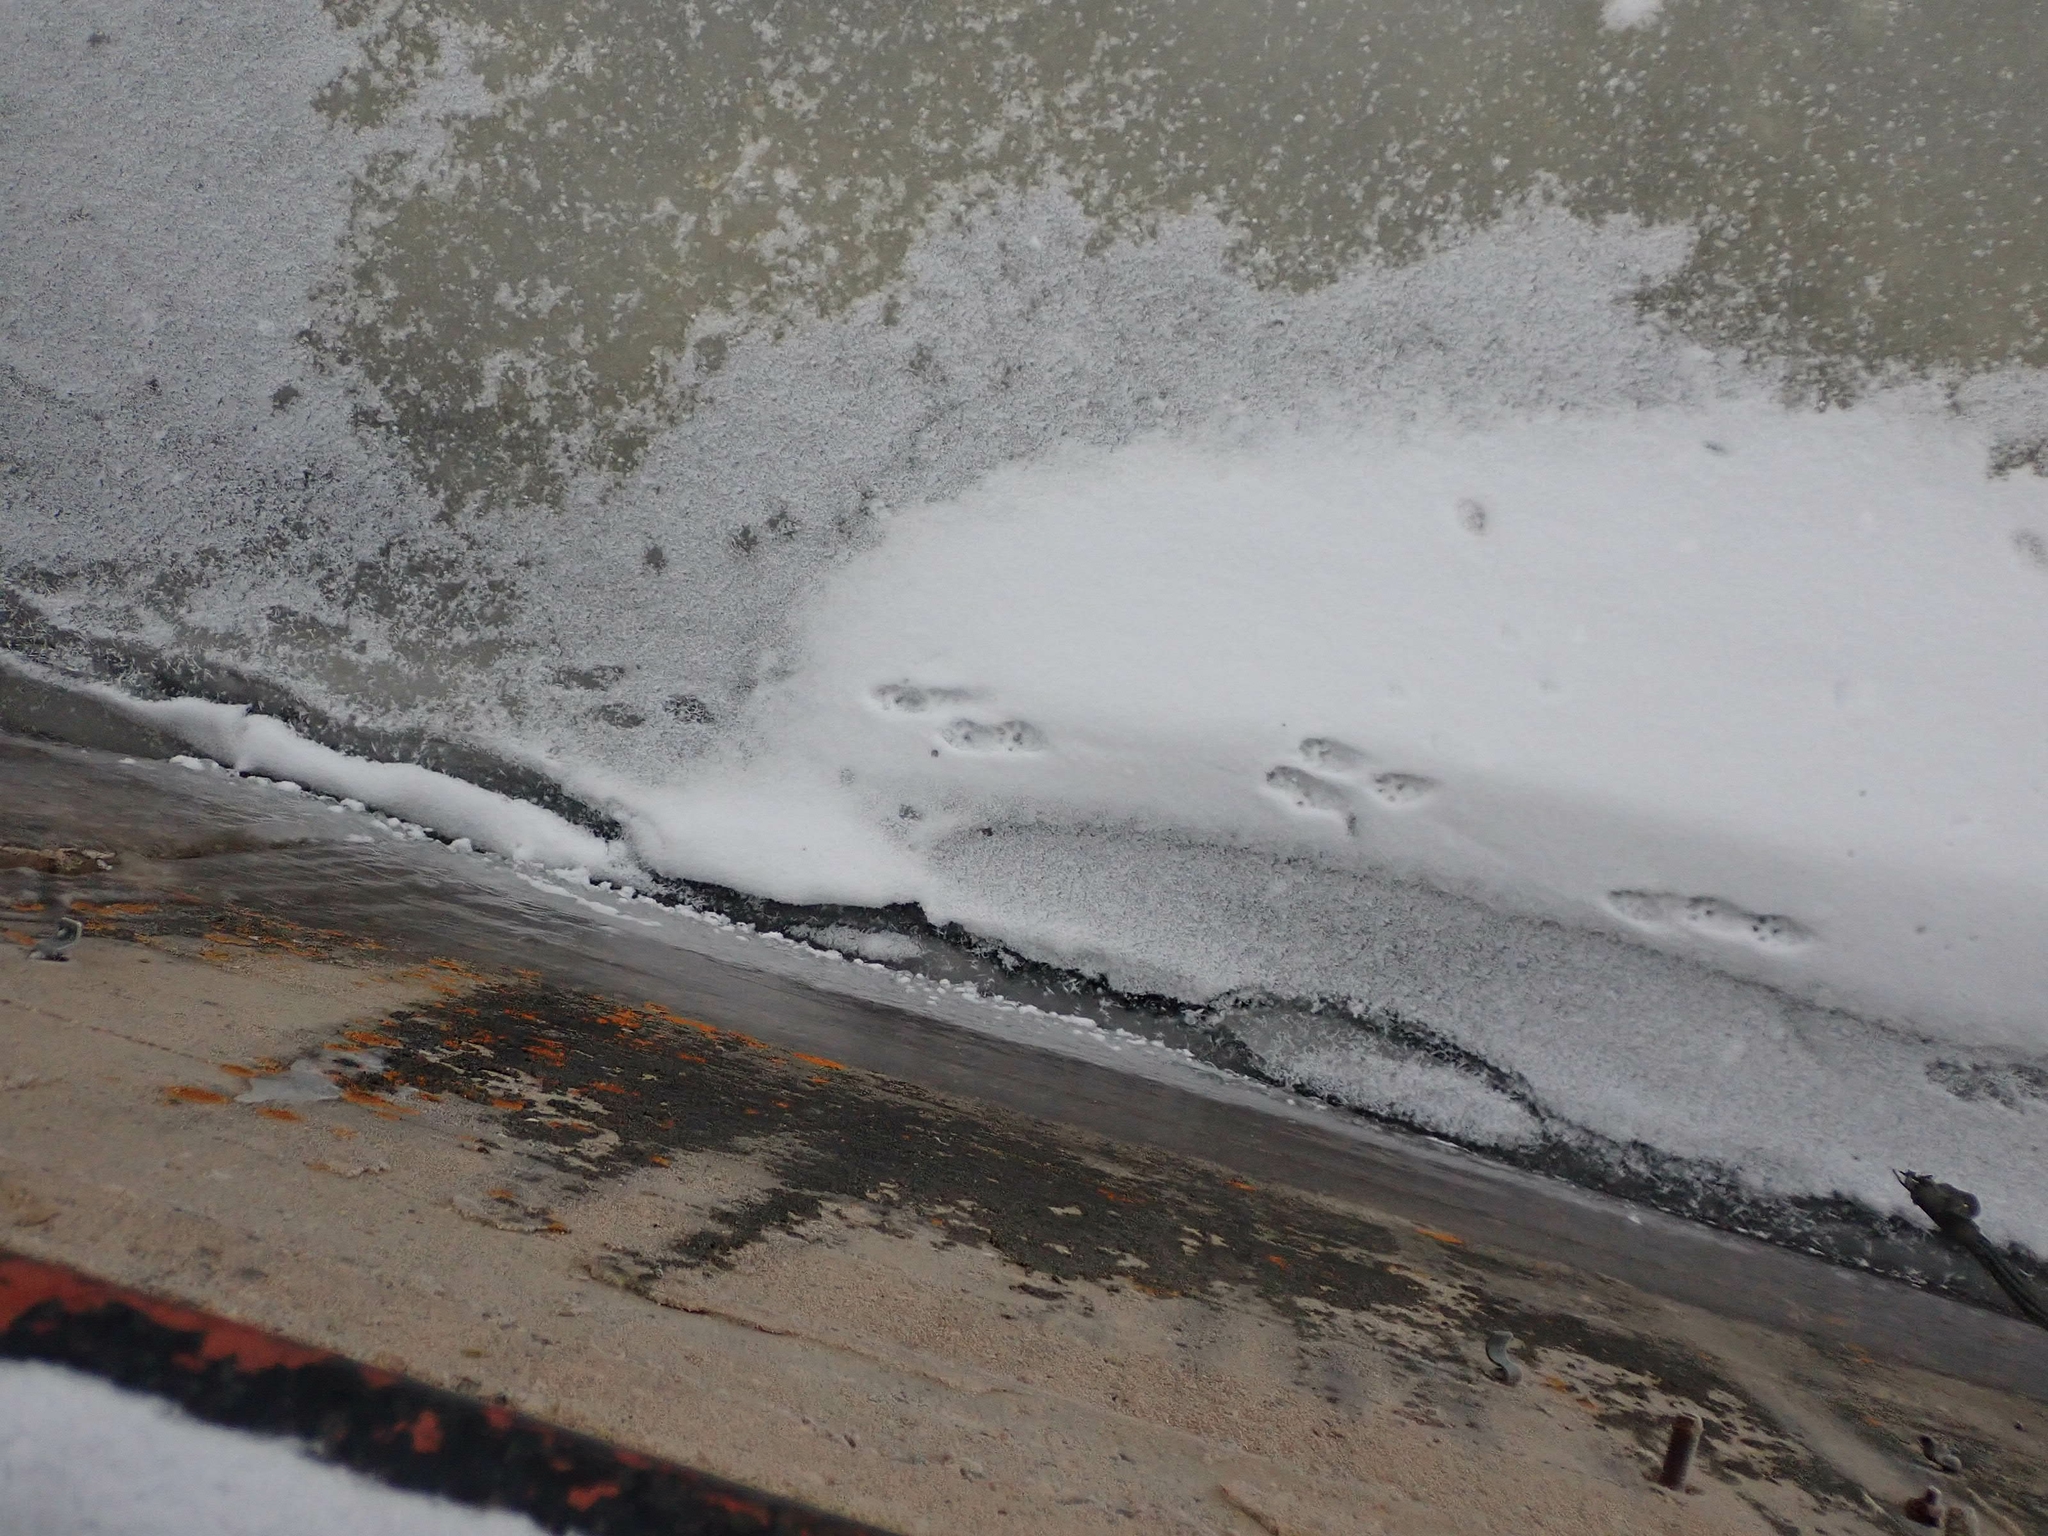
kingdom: Animalia
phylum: Chordata
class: Mammalia
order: Carnivora
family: Mustelidae
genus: Lontra
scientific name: Lontra canadensis
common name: North american river otter
